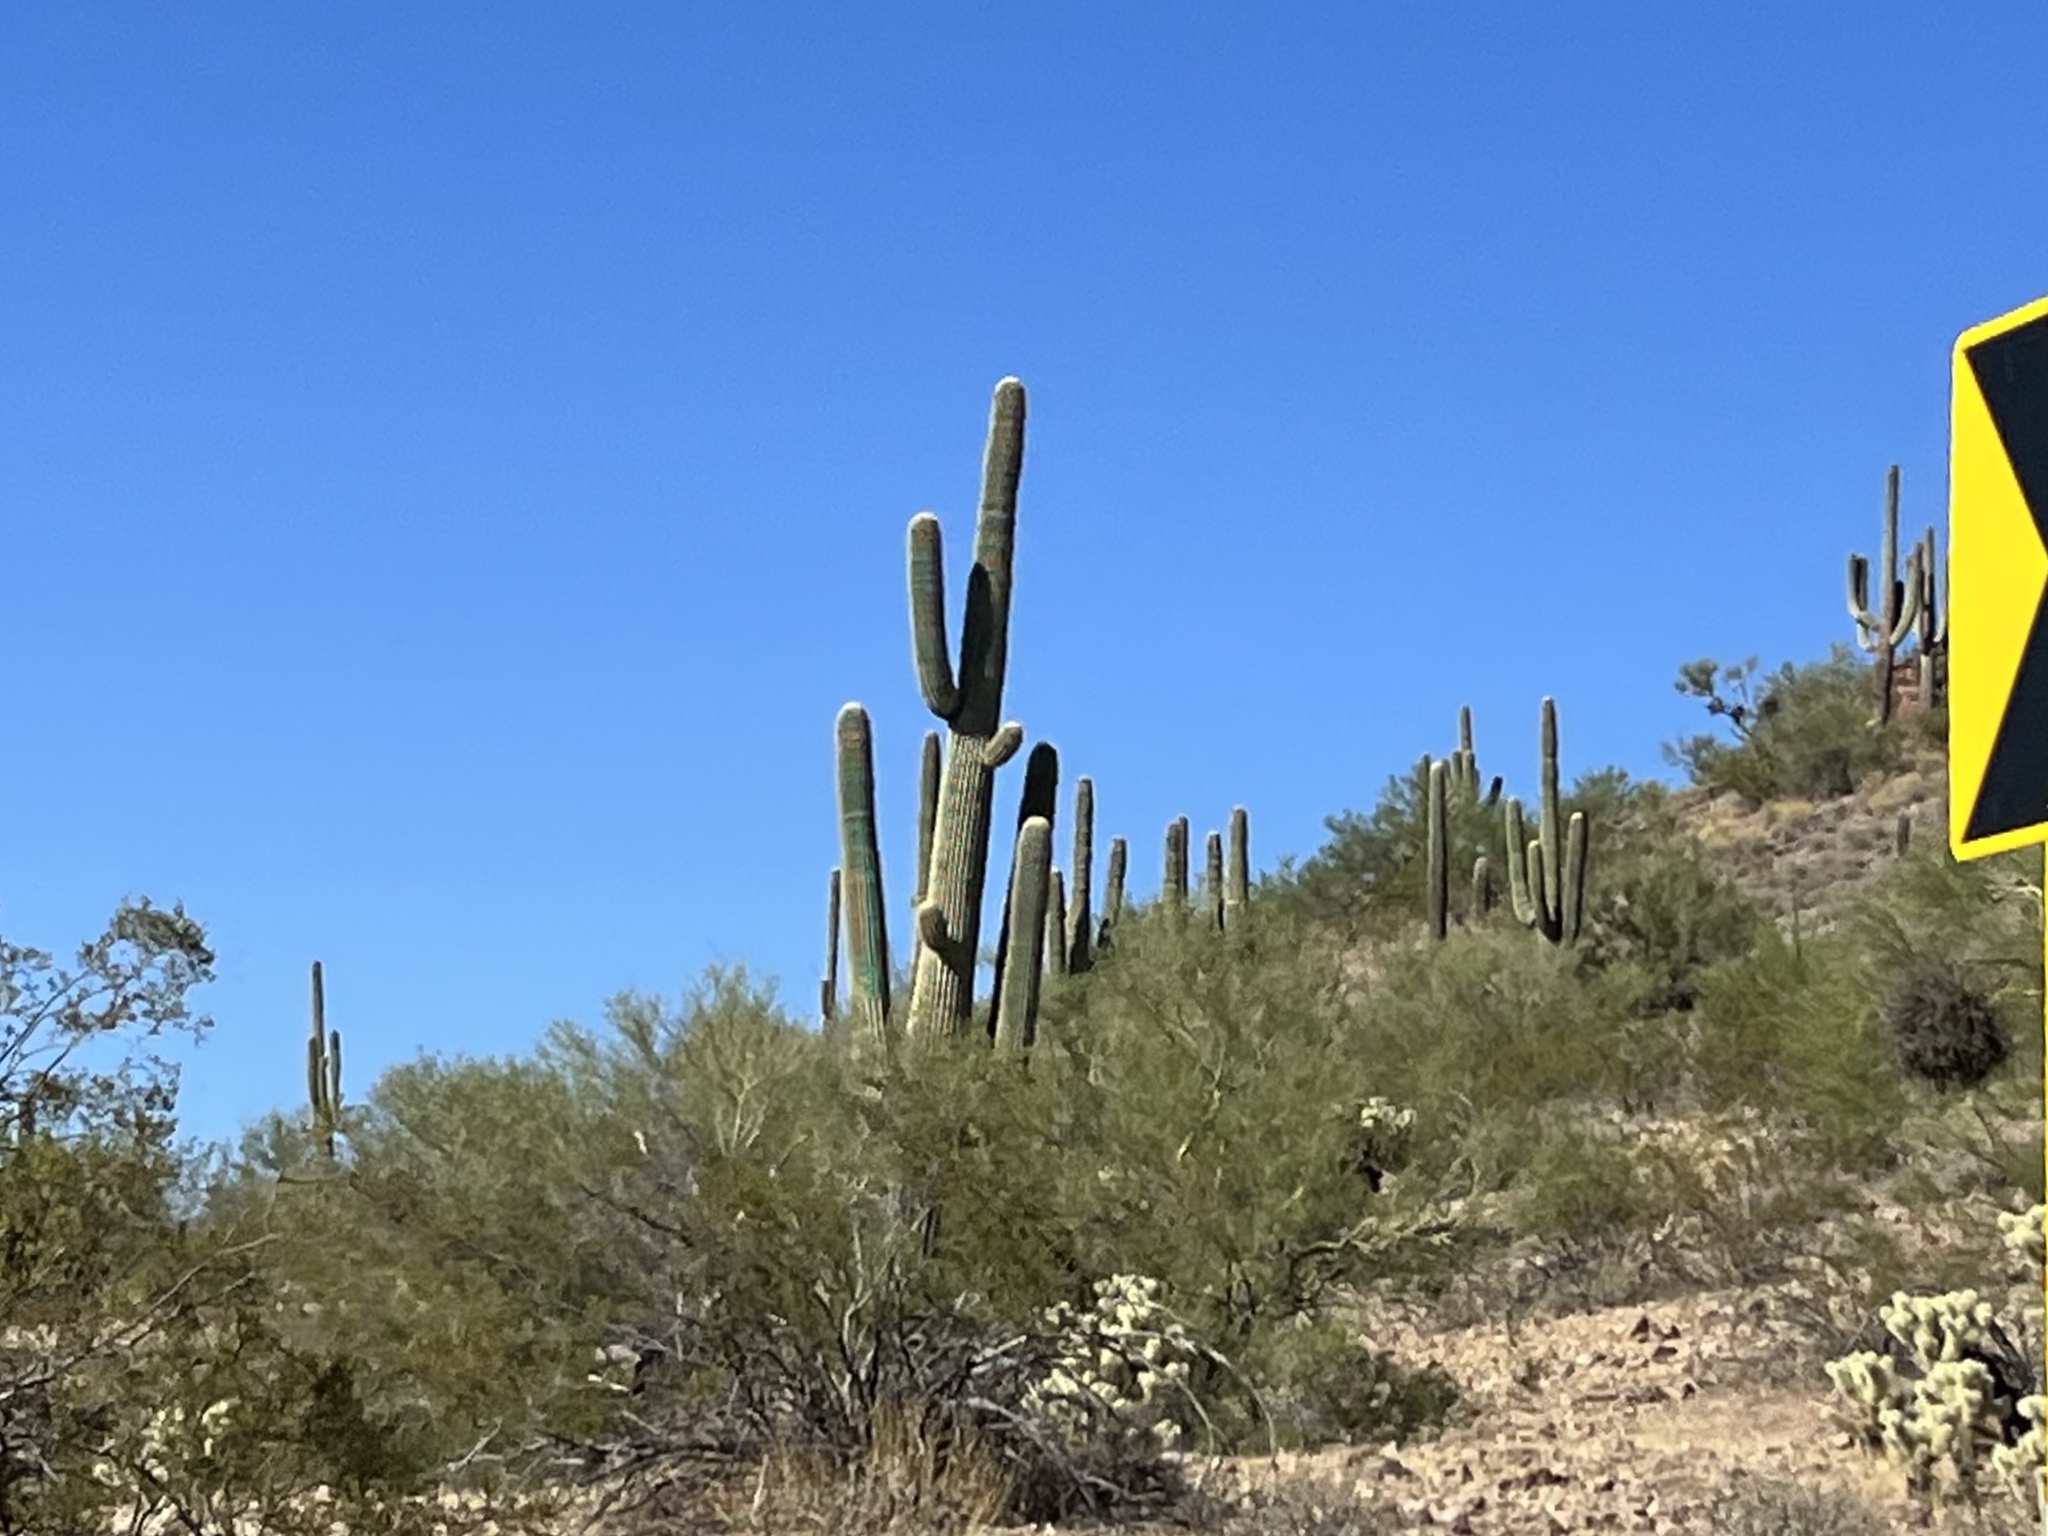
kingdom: Plantae
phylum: Tracheophyta
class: Magnoliopsida
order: Caryophyllales
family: Cactaceae
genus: Carnegiea
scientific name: Carnegiea gigantea
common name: Saguaro
